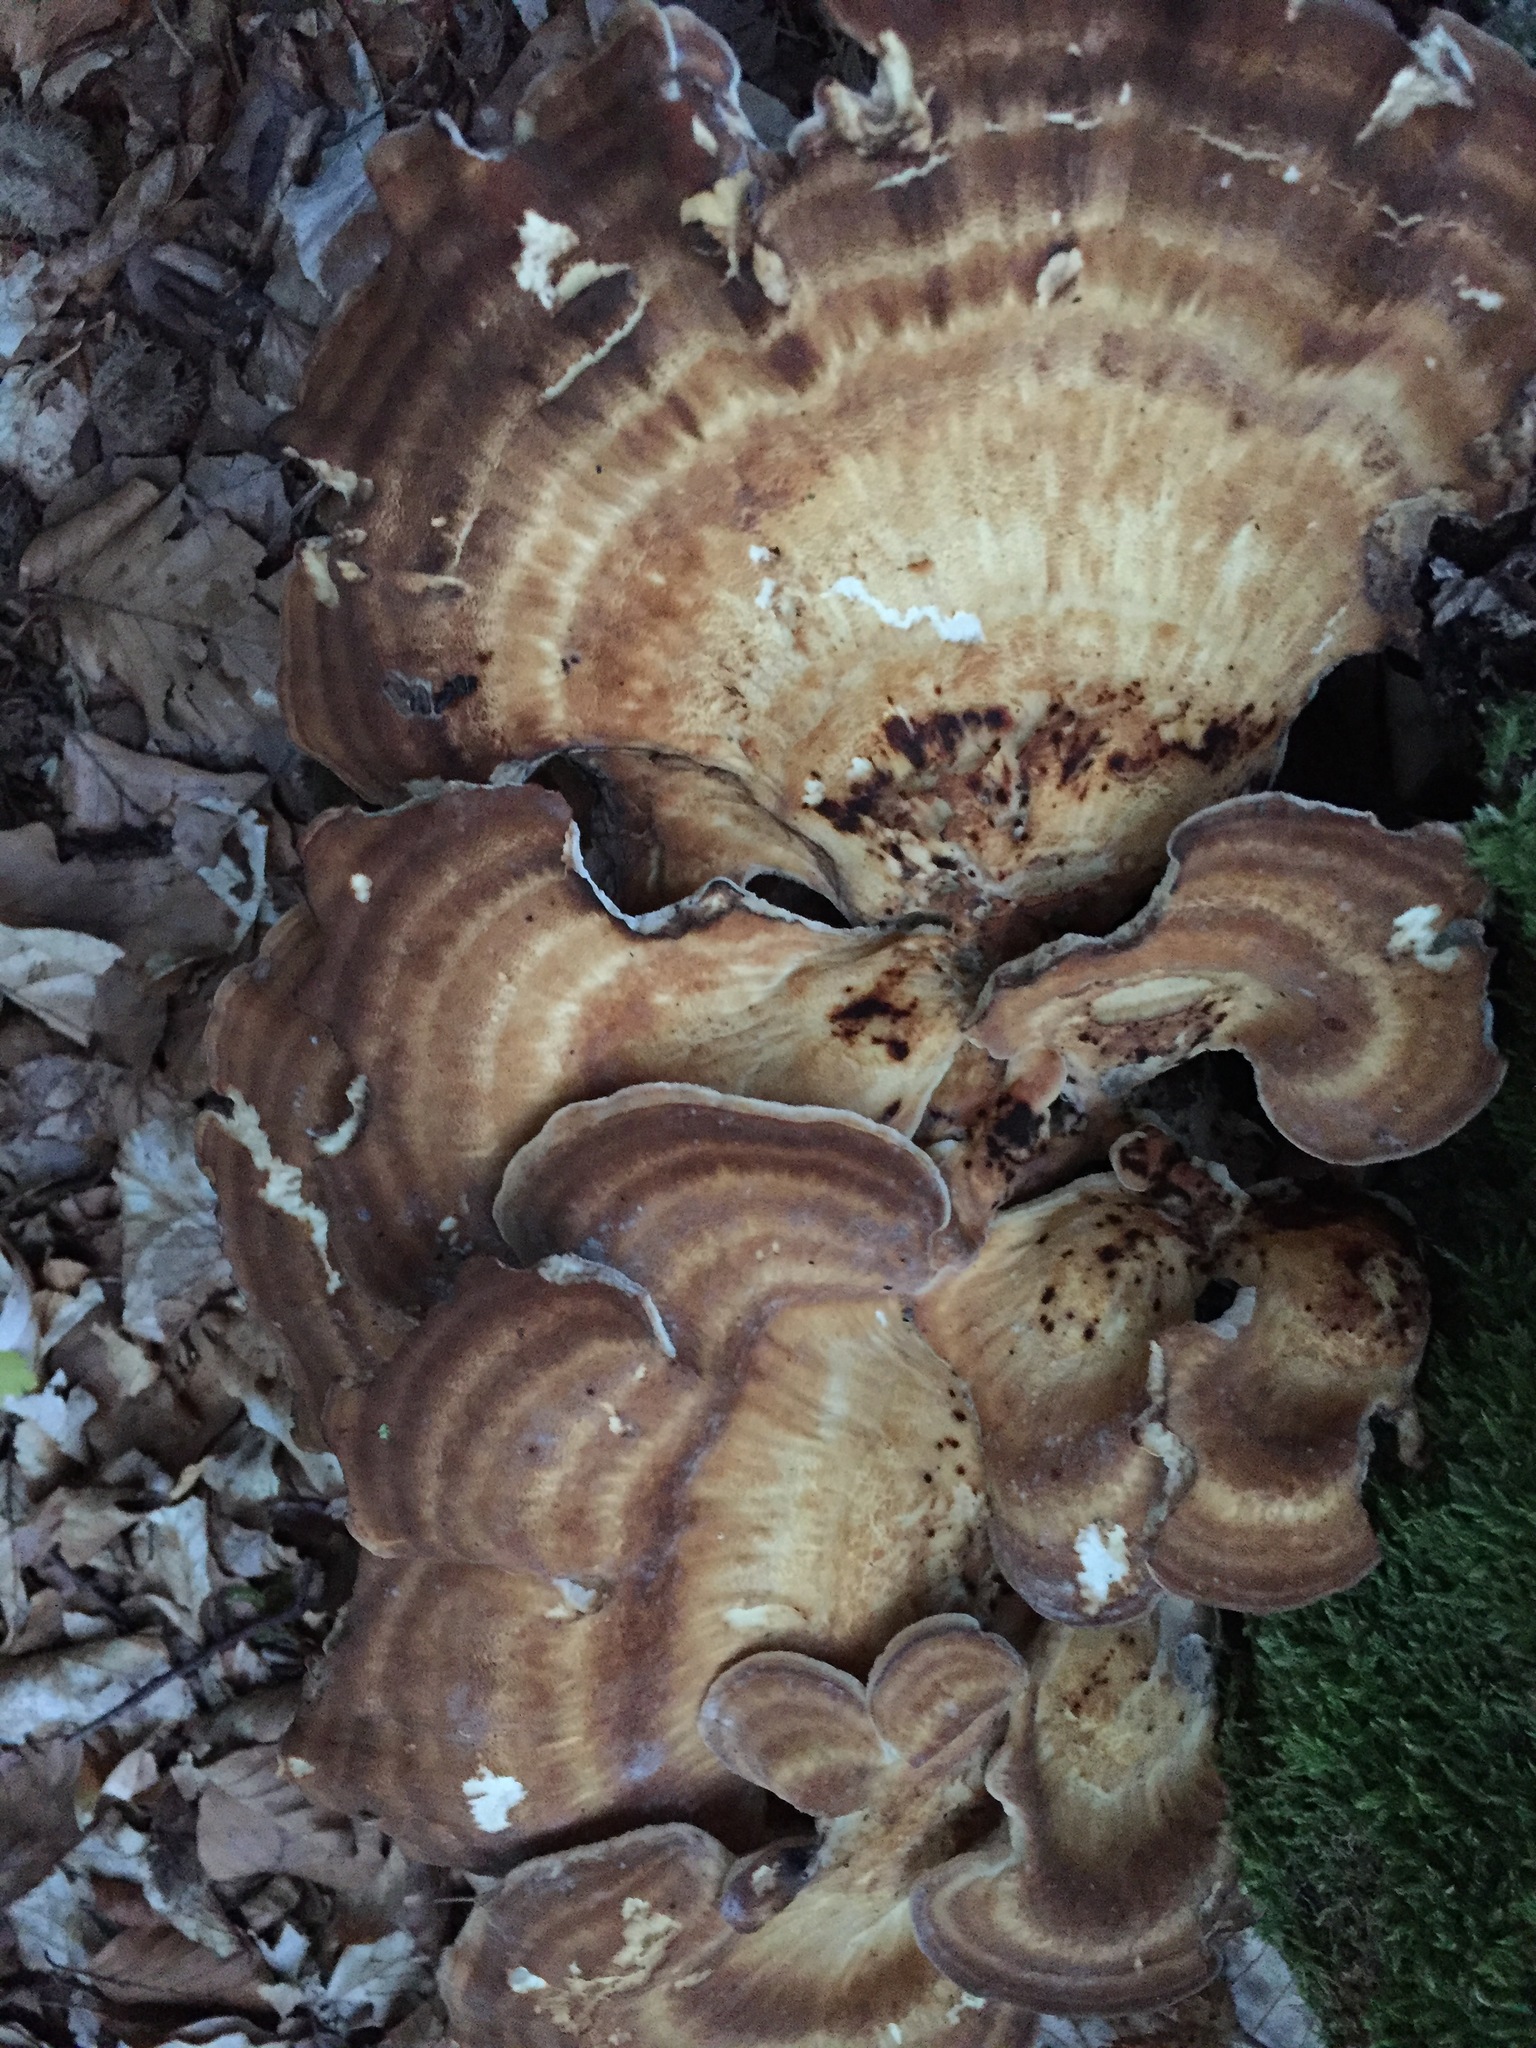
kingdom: Fungi
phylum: Basidiomycota
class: Agaricomycetes
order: Polyporales
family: Meripilaceae
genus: Meripilus
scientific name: Meripilus giganteus
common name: Giant polypore
